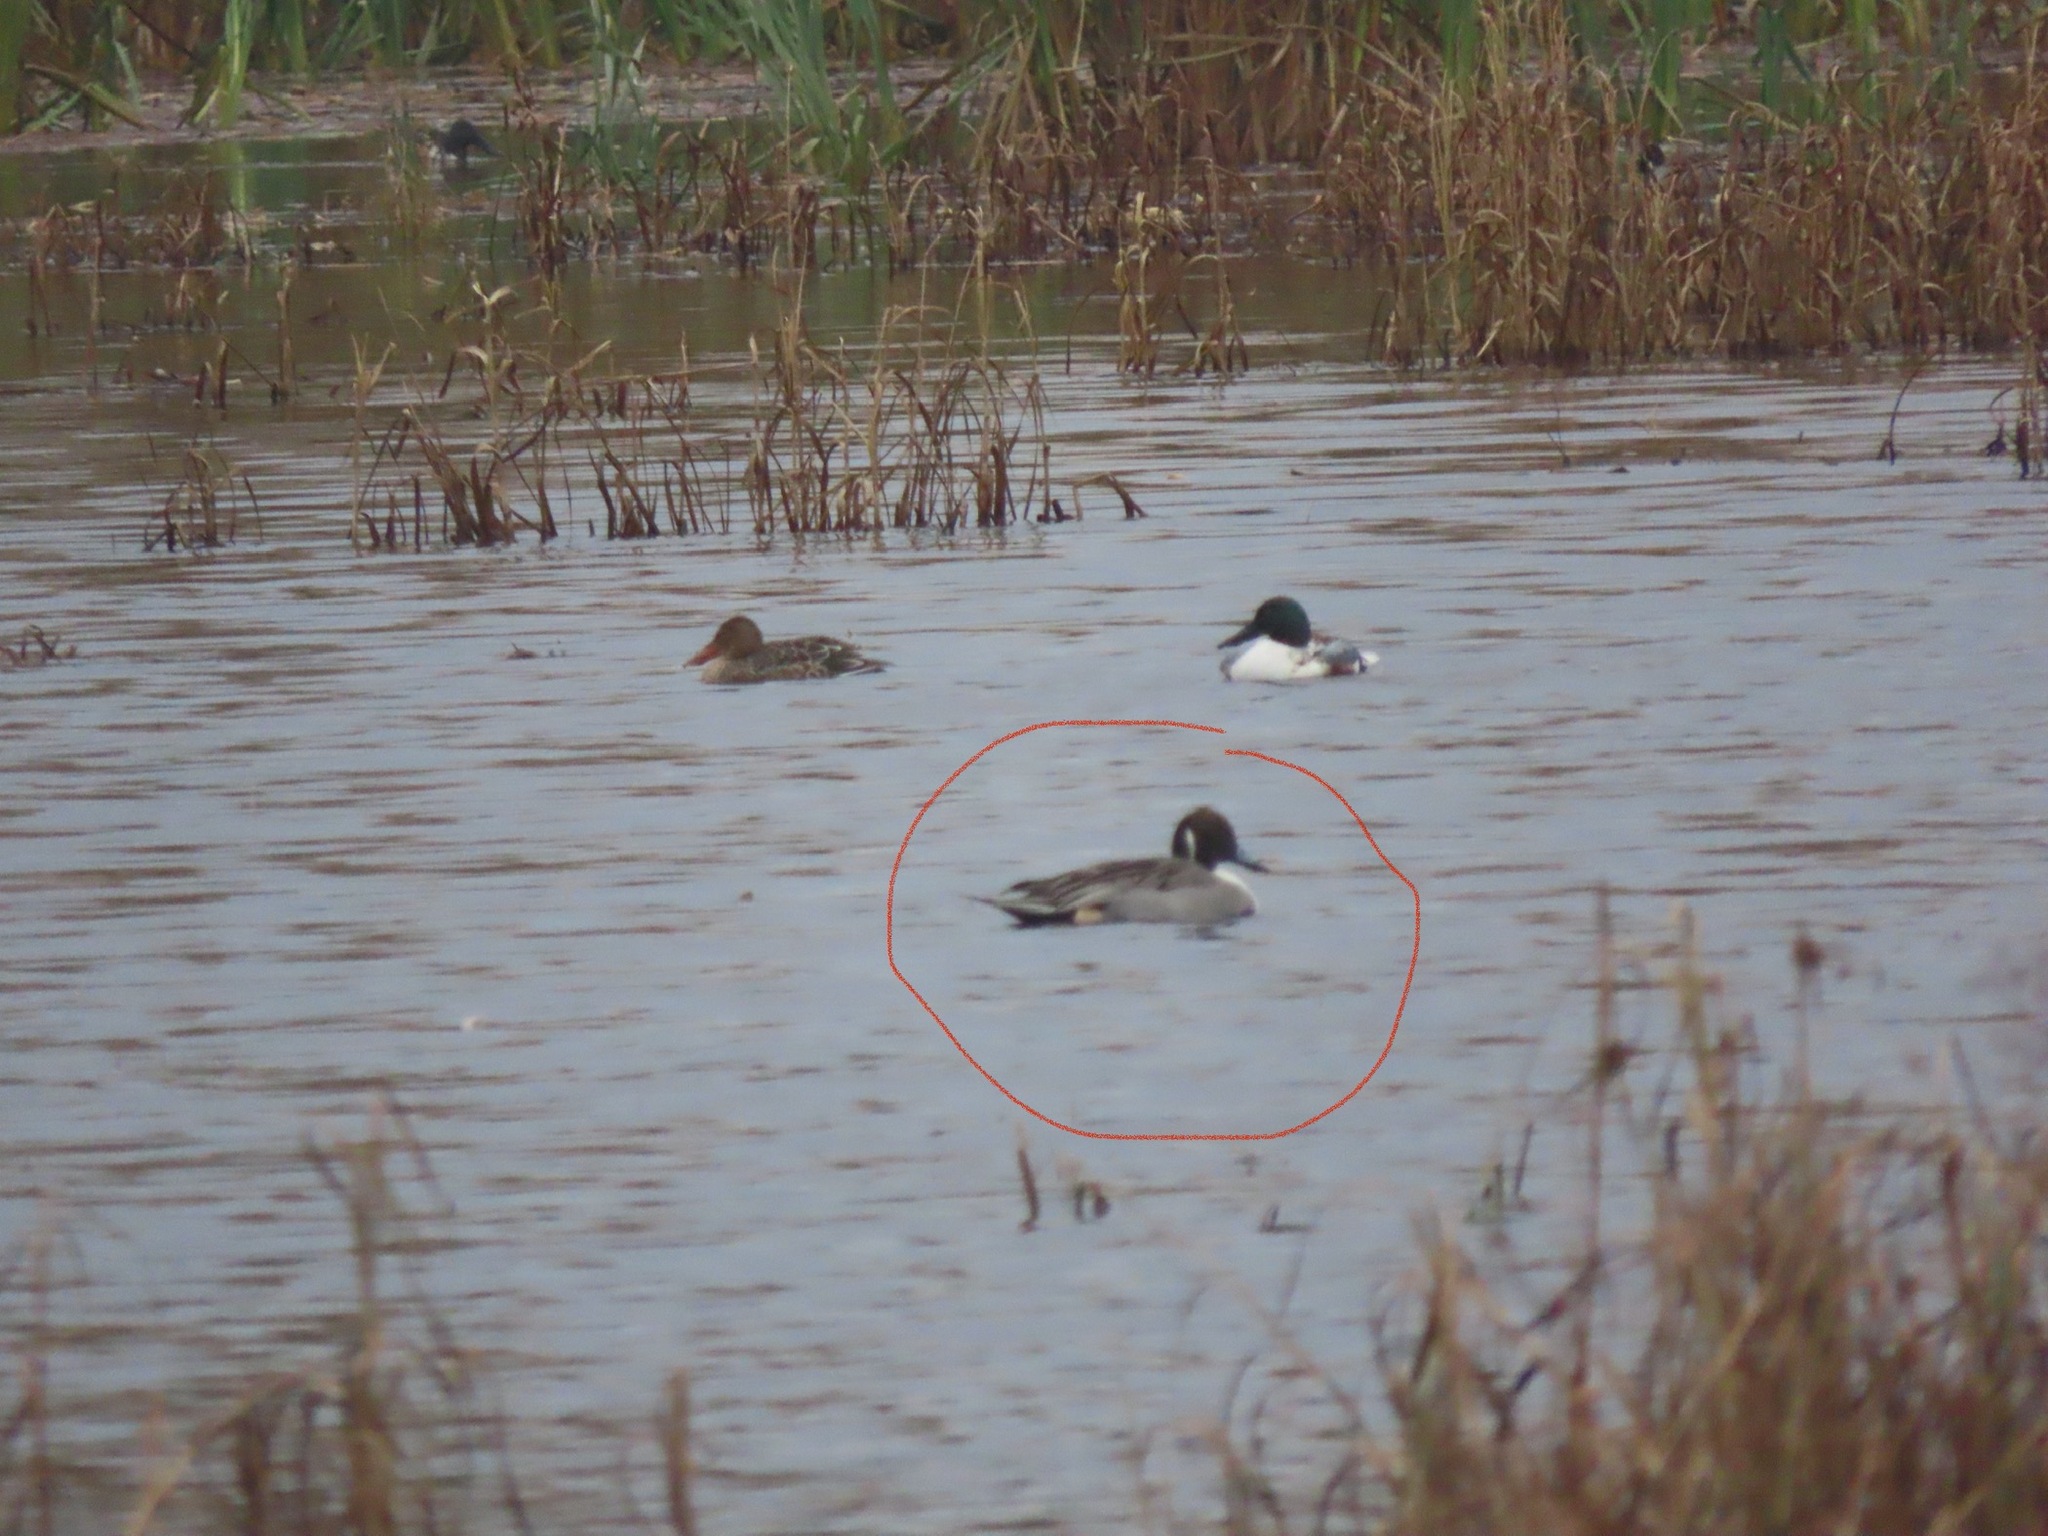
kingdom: Animalia
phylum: Chordata
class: Aves
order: Anseriformes
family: Anatidae
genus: Anas
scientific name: Anas acuta
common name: Northern pintail
